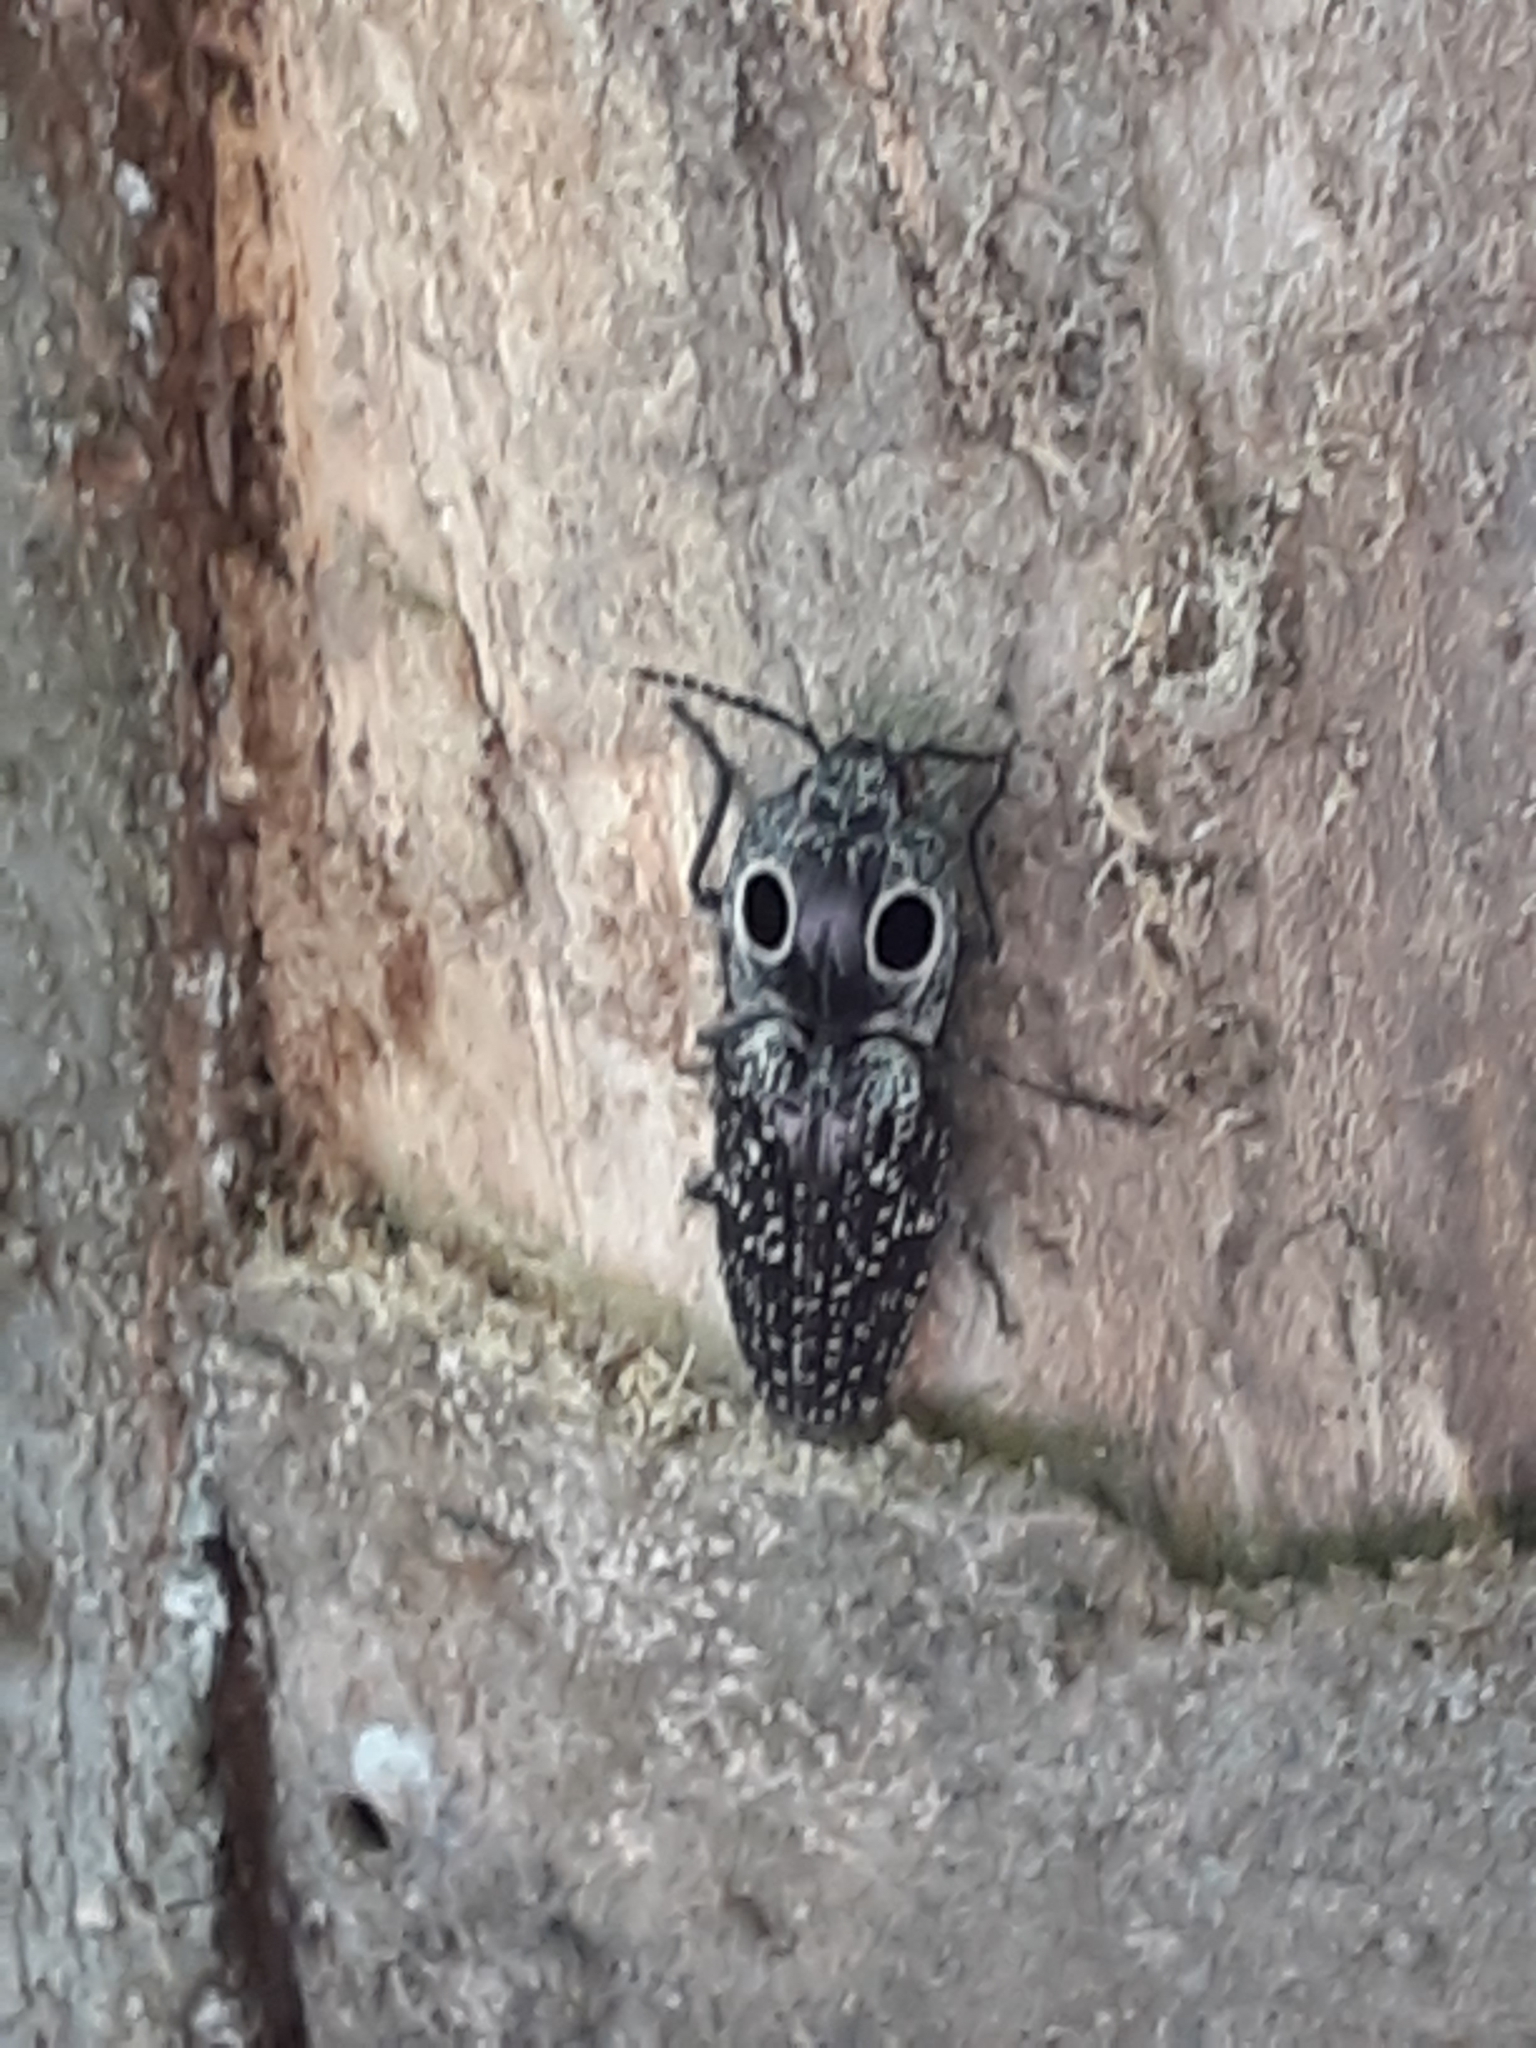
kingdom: Animalia
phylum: Arthropoda
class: Insecta
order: Coleoptera
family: Elateridae
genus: Alaus
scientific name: Alaus oculatus
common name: Eastern eyed click beetle
